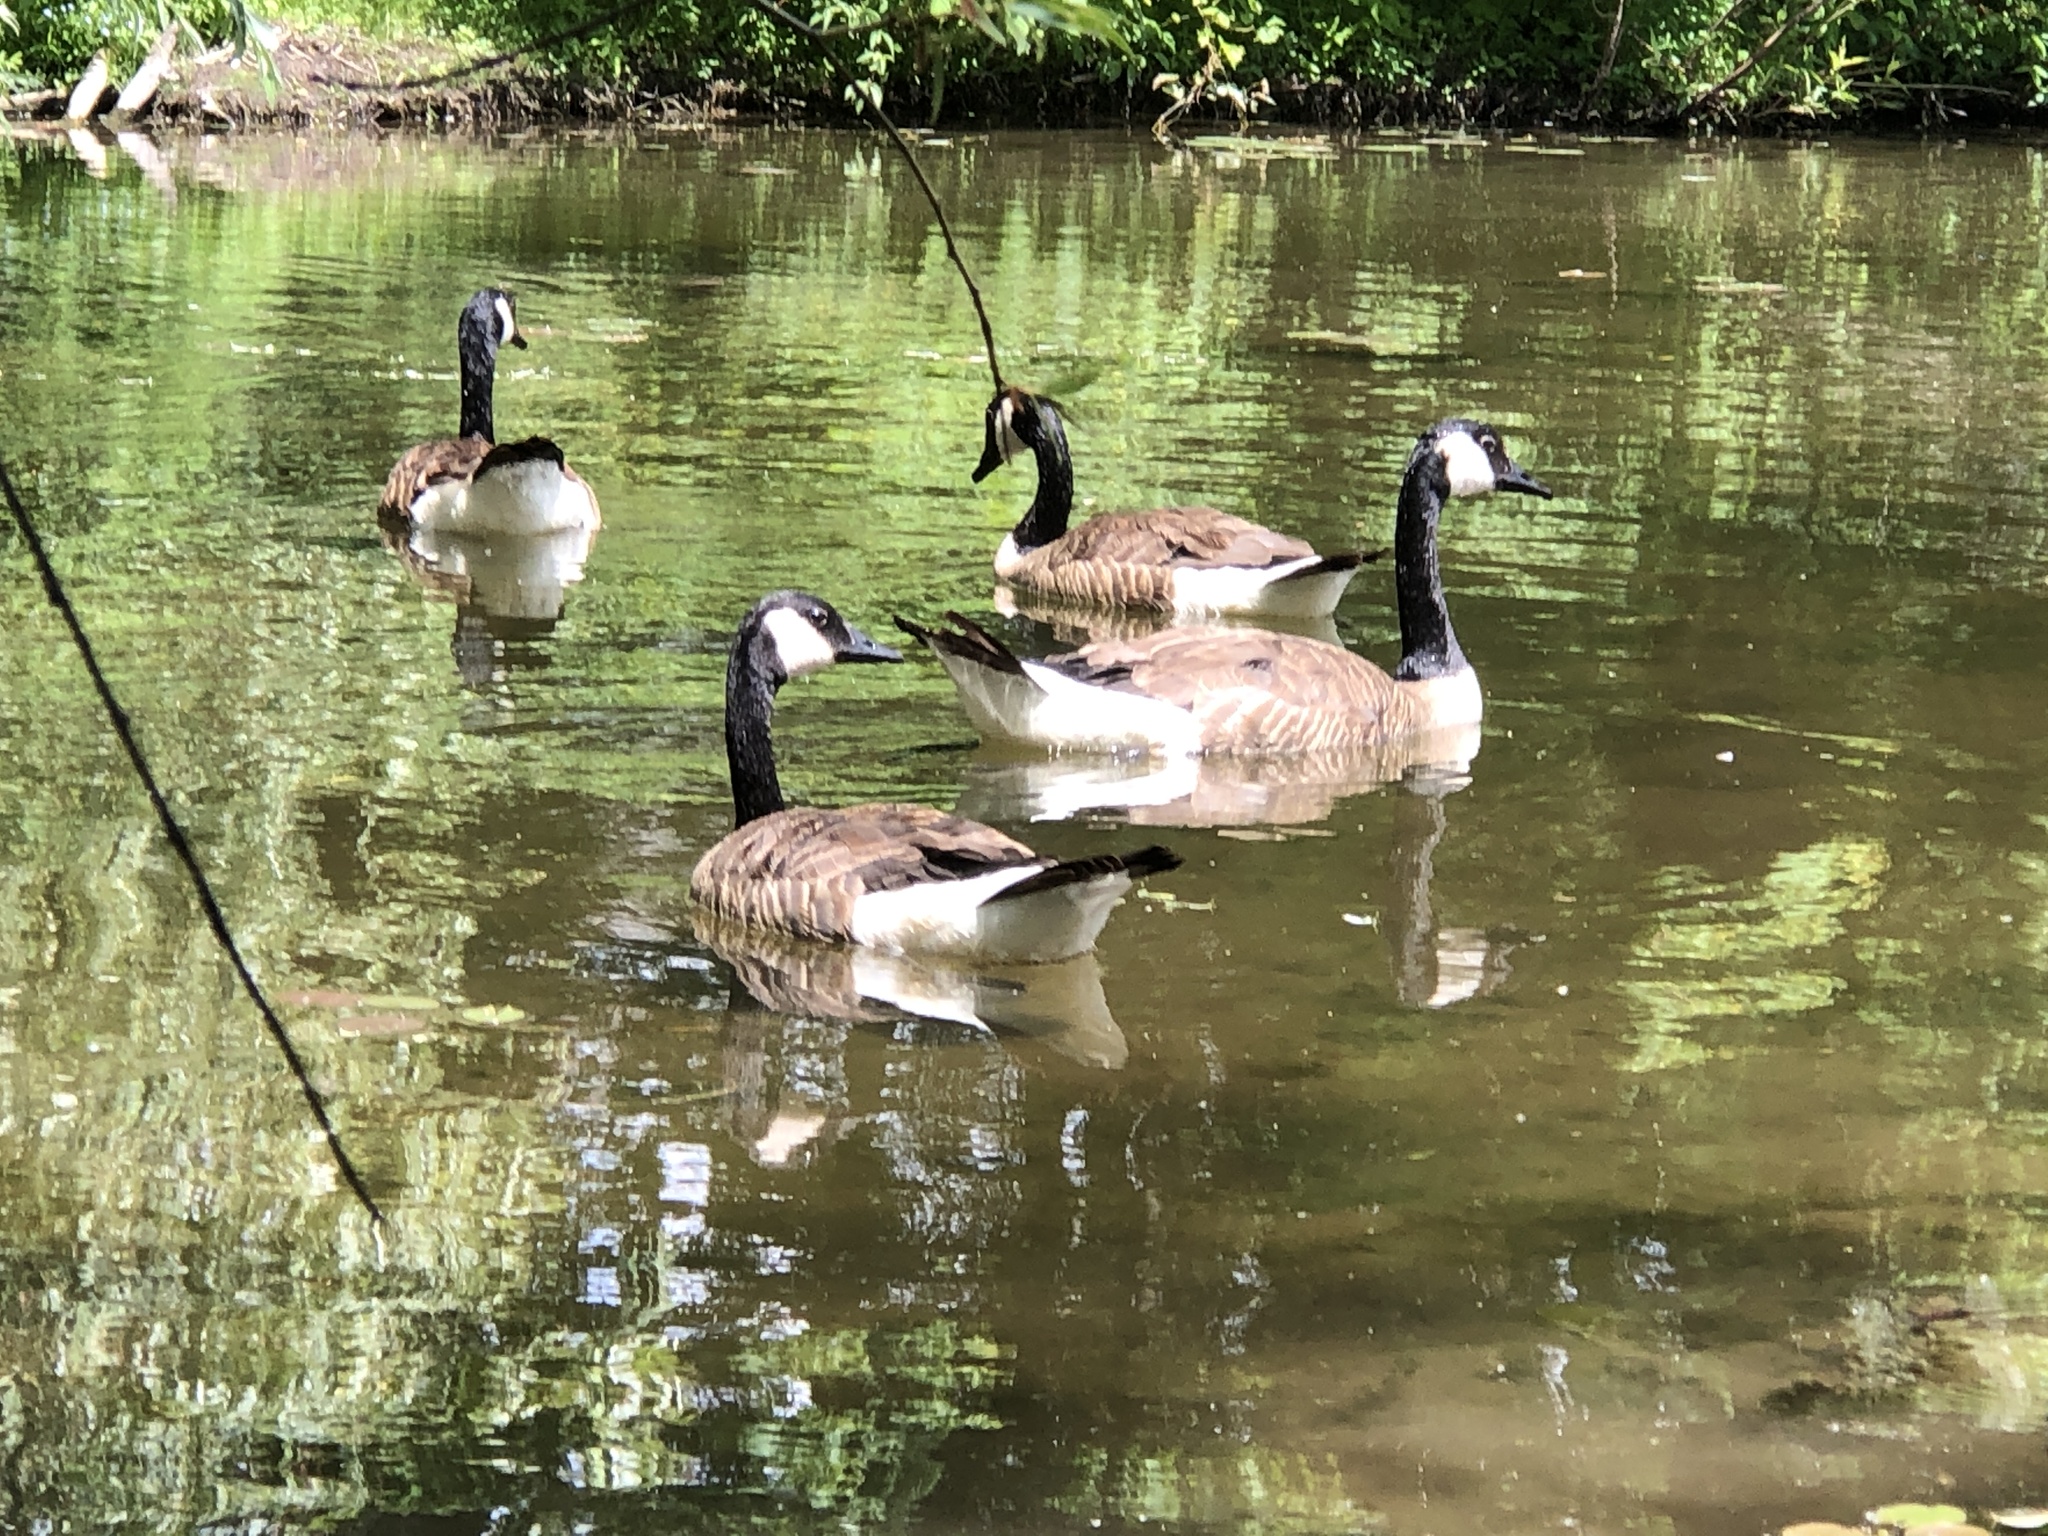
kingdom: Animalia
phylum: Chordata
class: Aves
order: Anseriformes
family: Anatidae
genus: Branta
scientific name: Branta canadensis
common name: Canada goose
